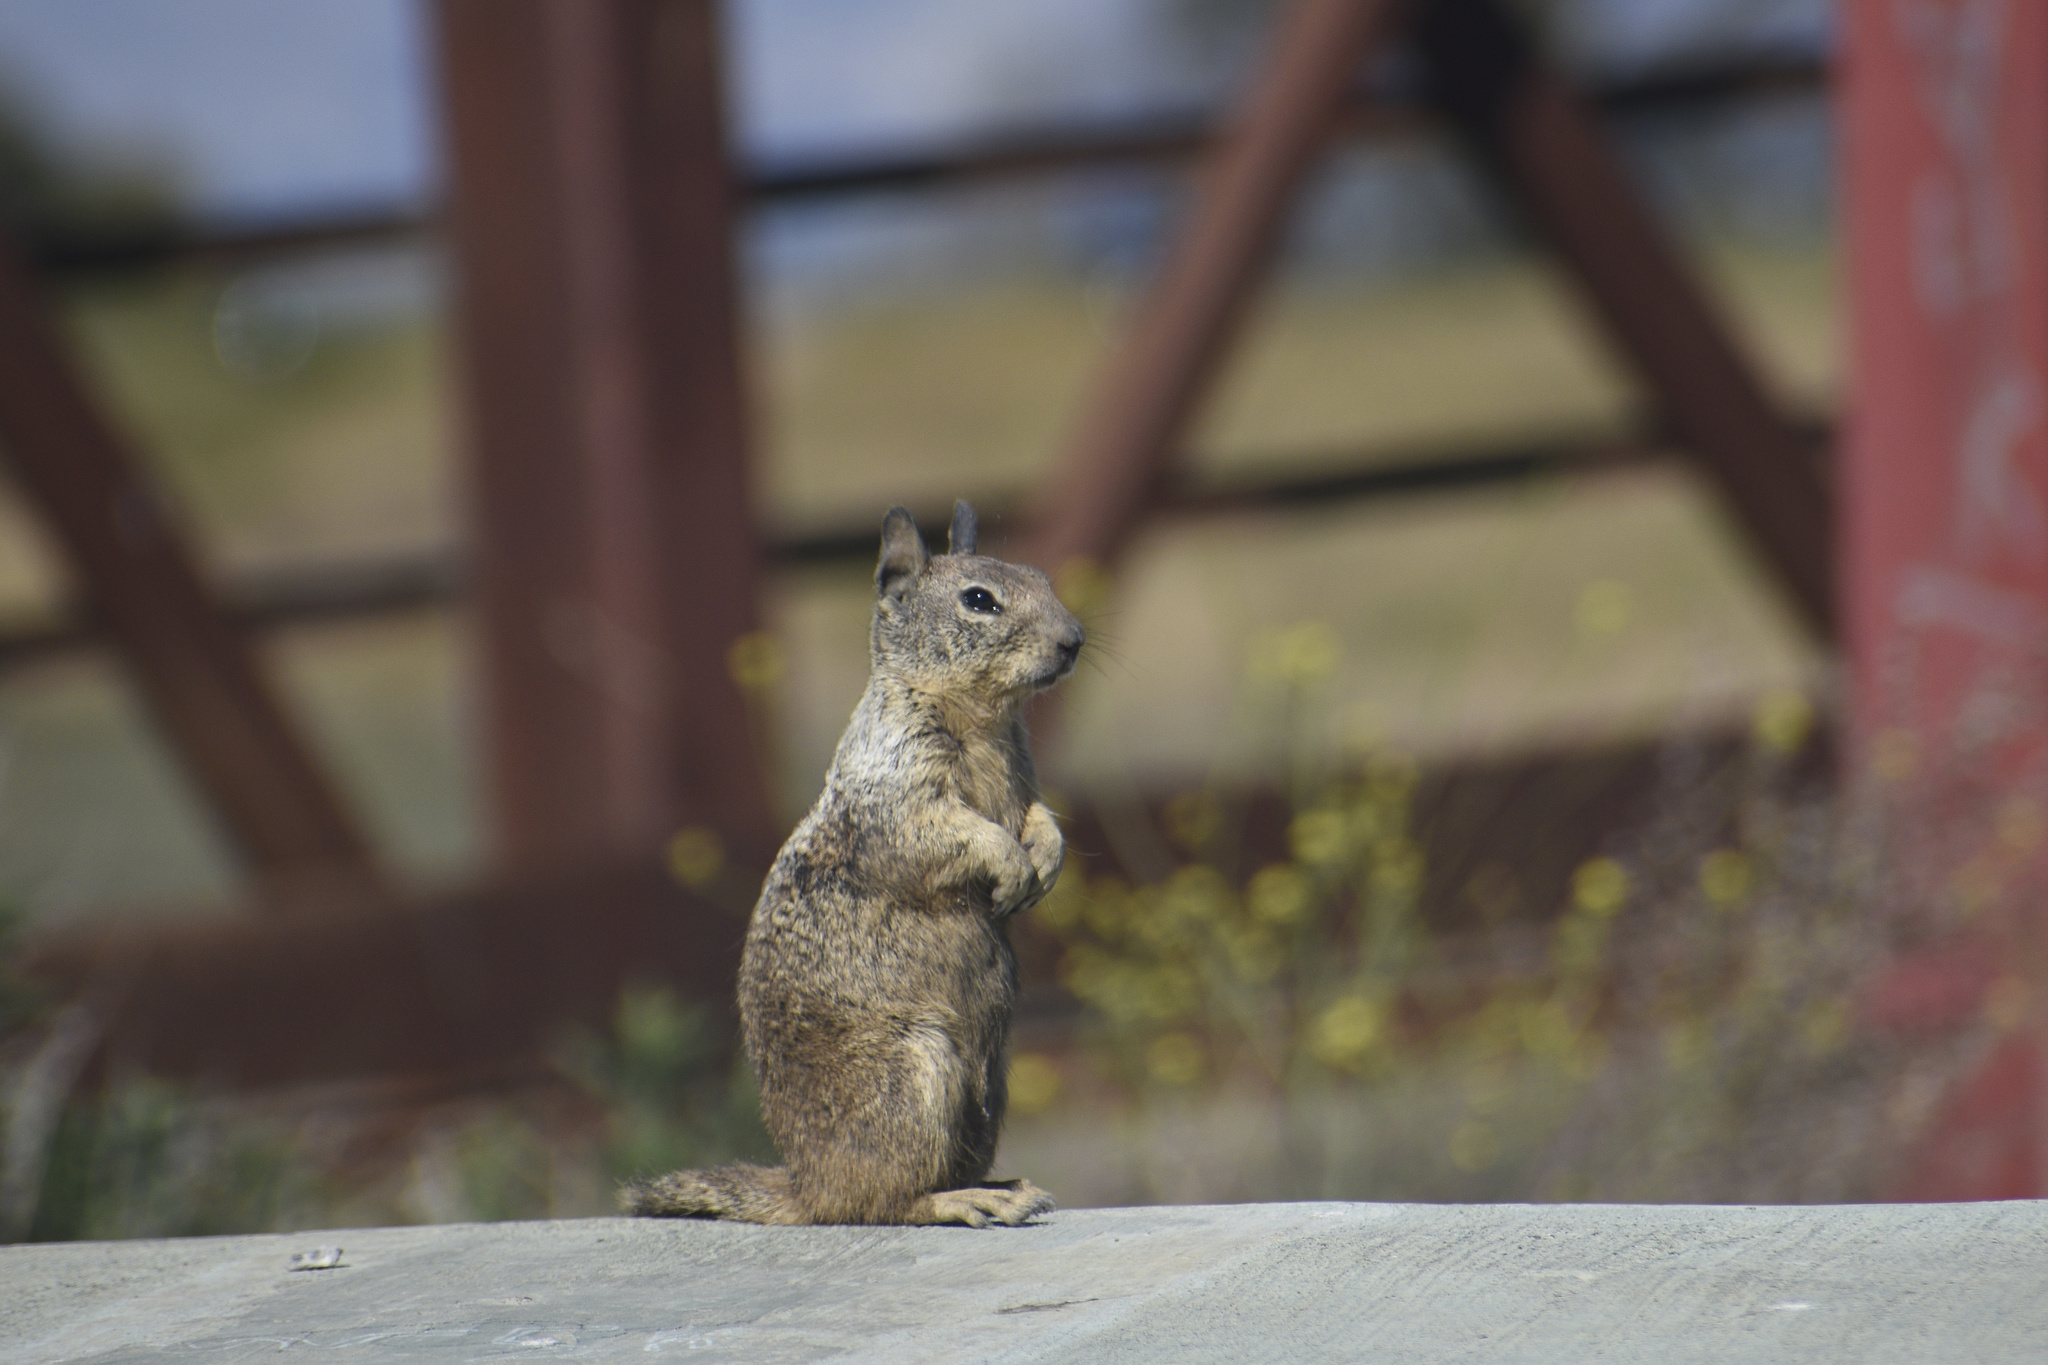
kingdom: Animalia
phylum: Chordata
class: Mammalia
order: Rodentia
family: Sciuridae
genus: Otospermophilus
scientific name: Otospermophilus beecheyi
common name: California ground squirrel
